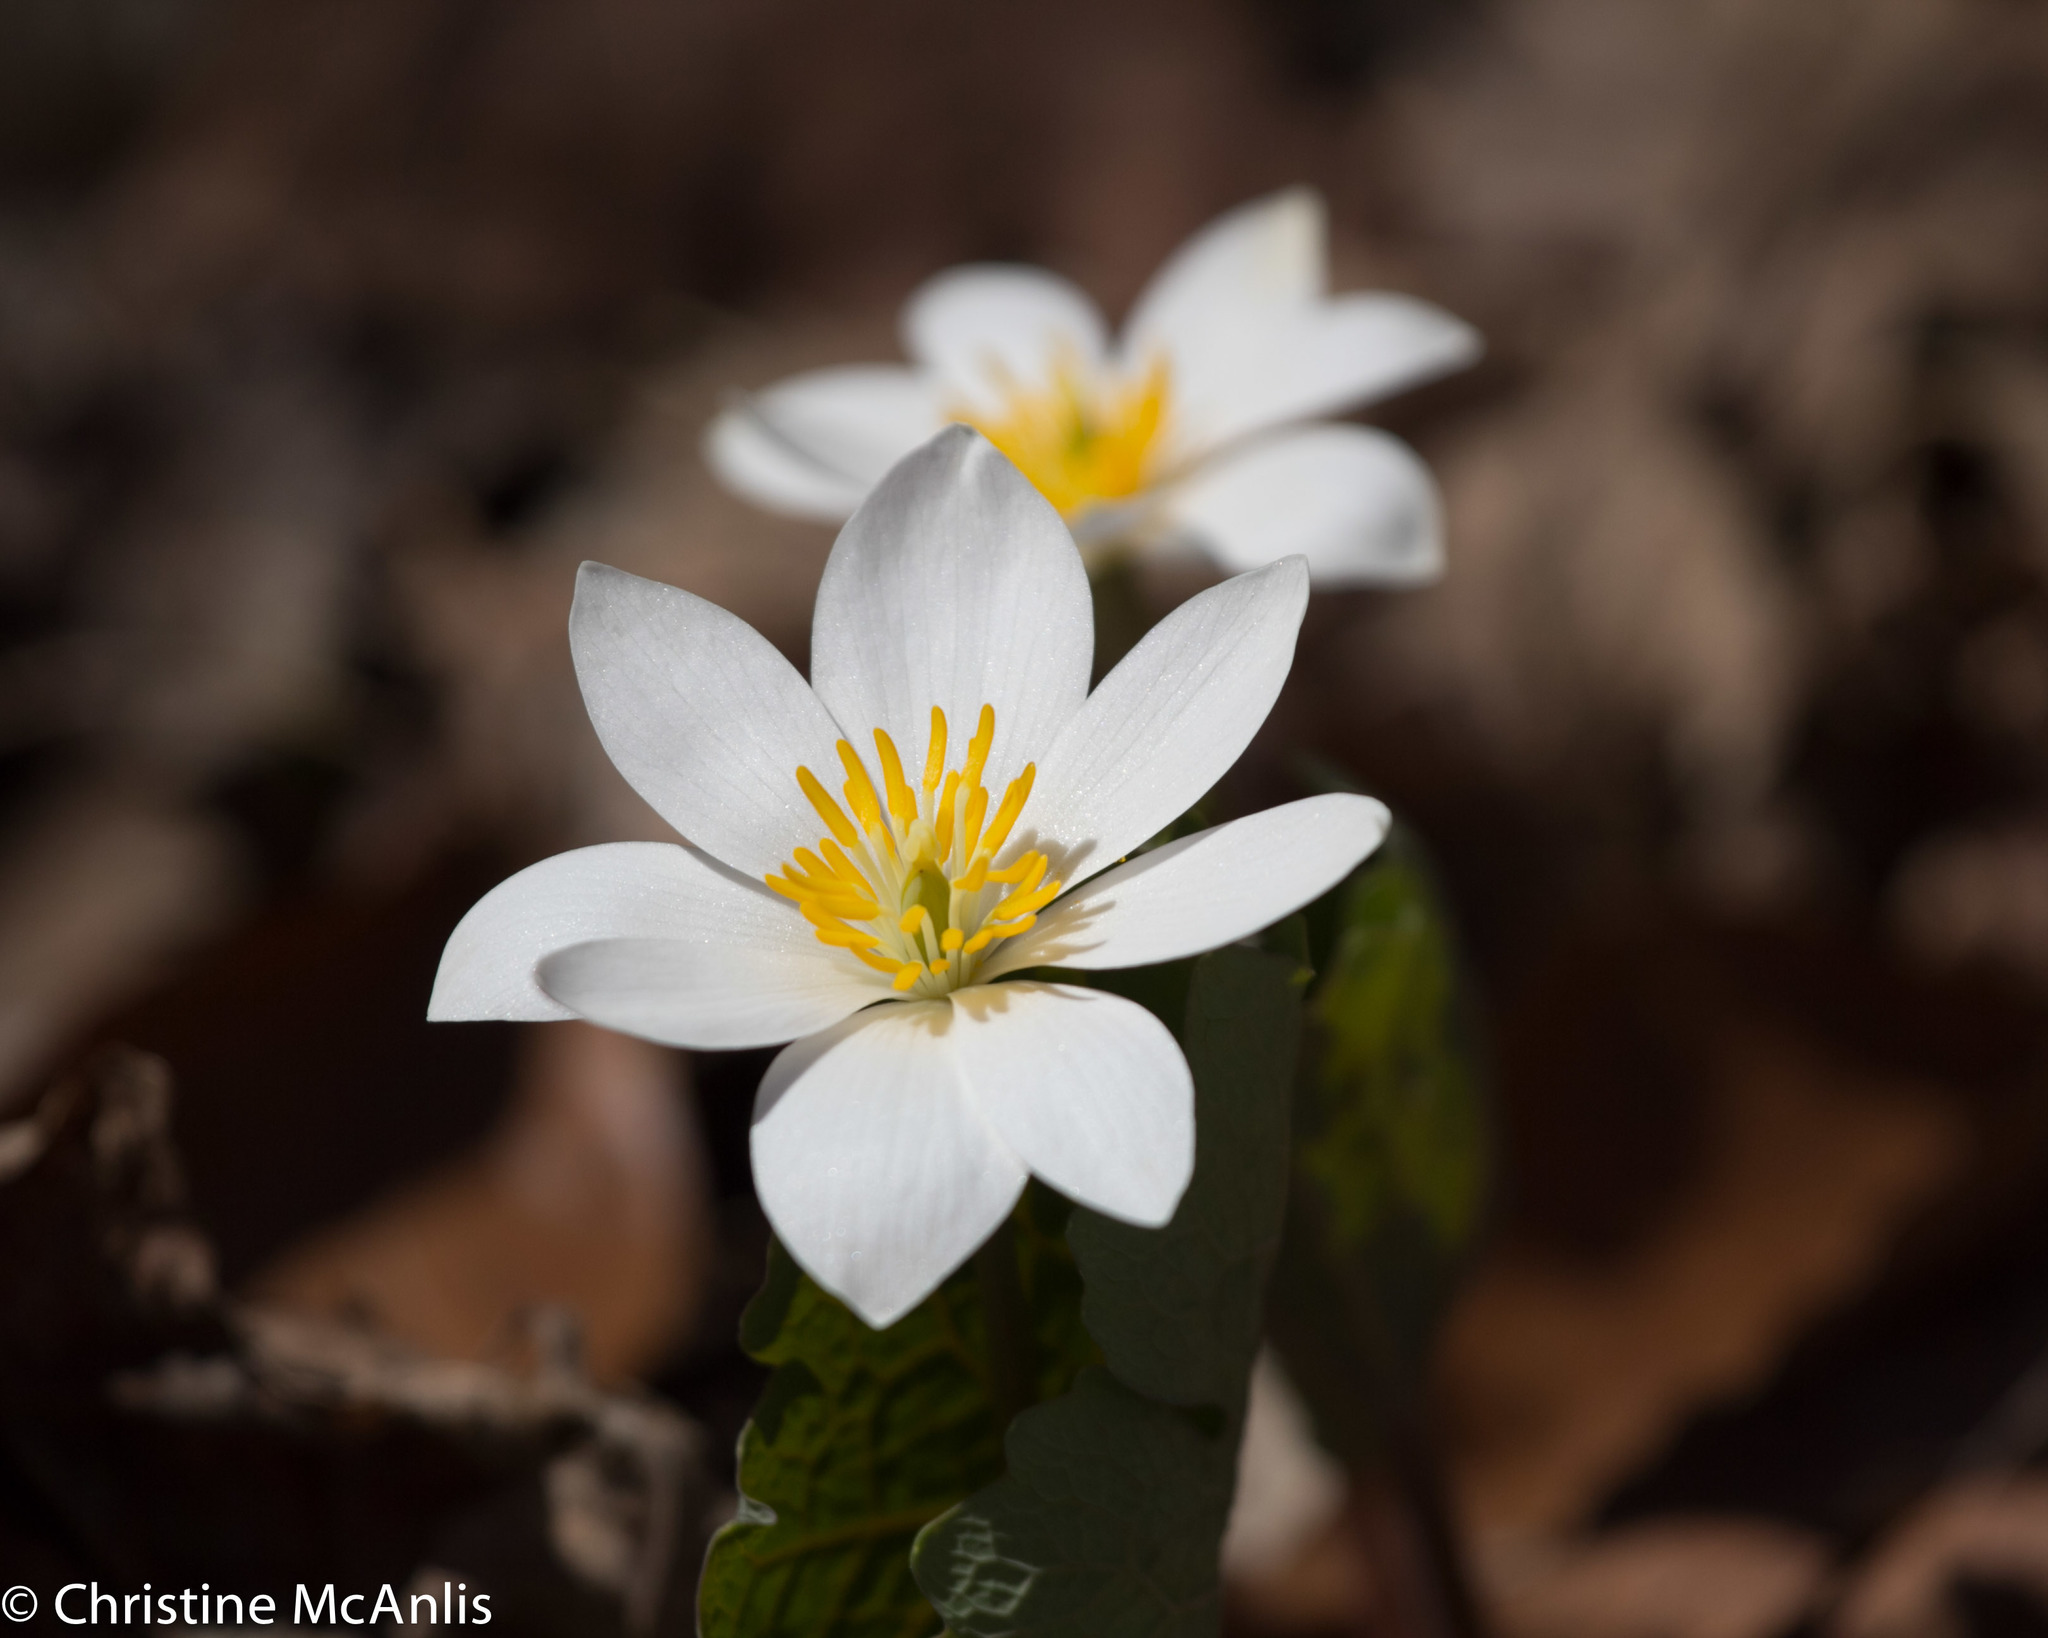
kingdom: Plantae
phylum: Tracheophyta
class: Magnoliopsida
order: Ranunculales
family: Papaveraceae
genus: Sanguinaria
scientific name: Sanguinaria canadensis
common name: Bloodroot
